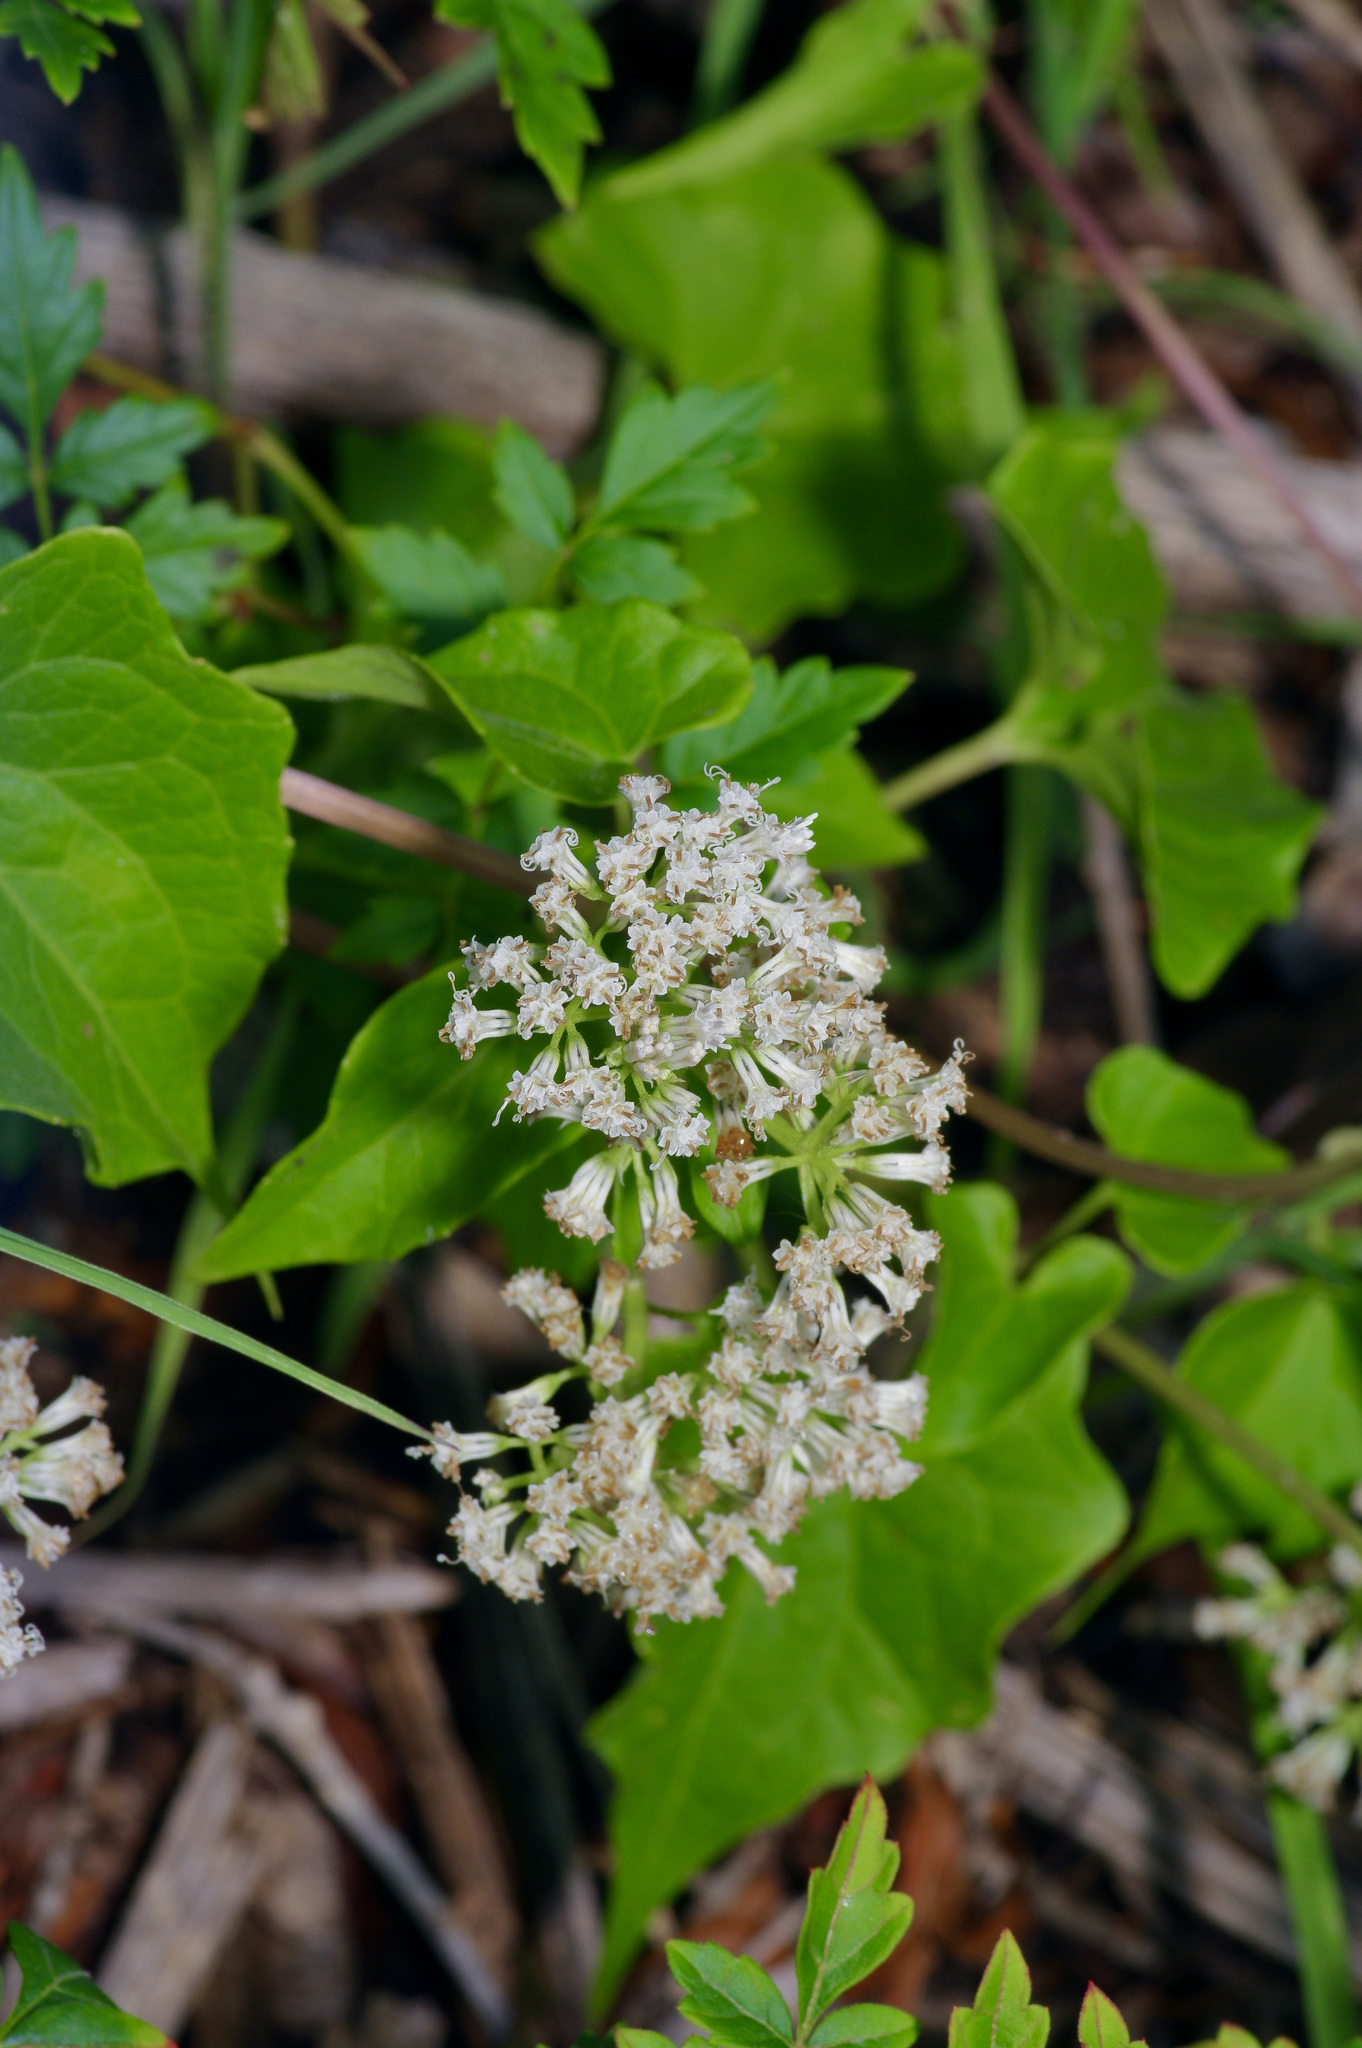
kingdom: Plantae
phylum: Tracheophyta
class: Magnoliopsida
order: Asterales
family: Asteraceae
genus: Mikania
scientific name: Mikania scandens
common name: Climbing hempvine
